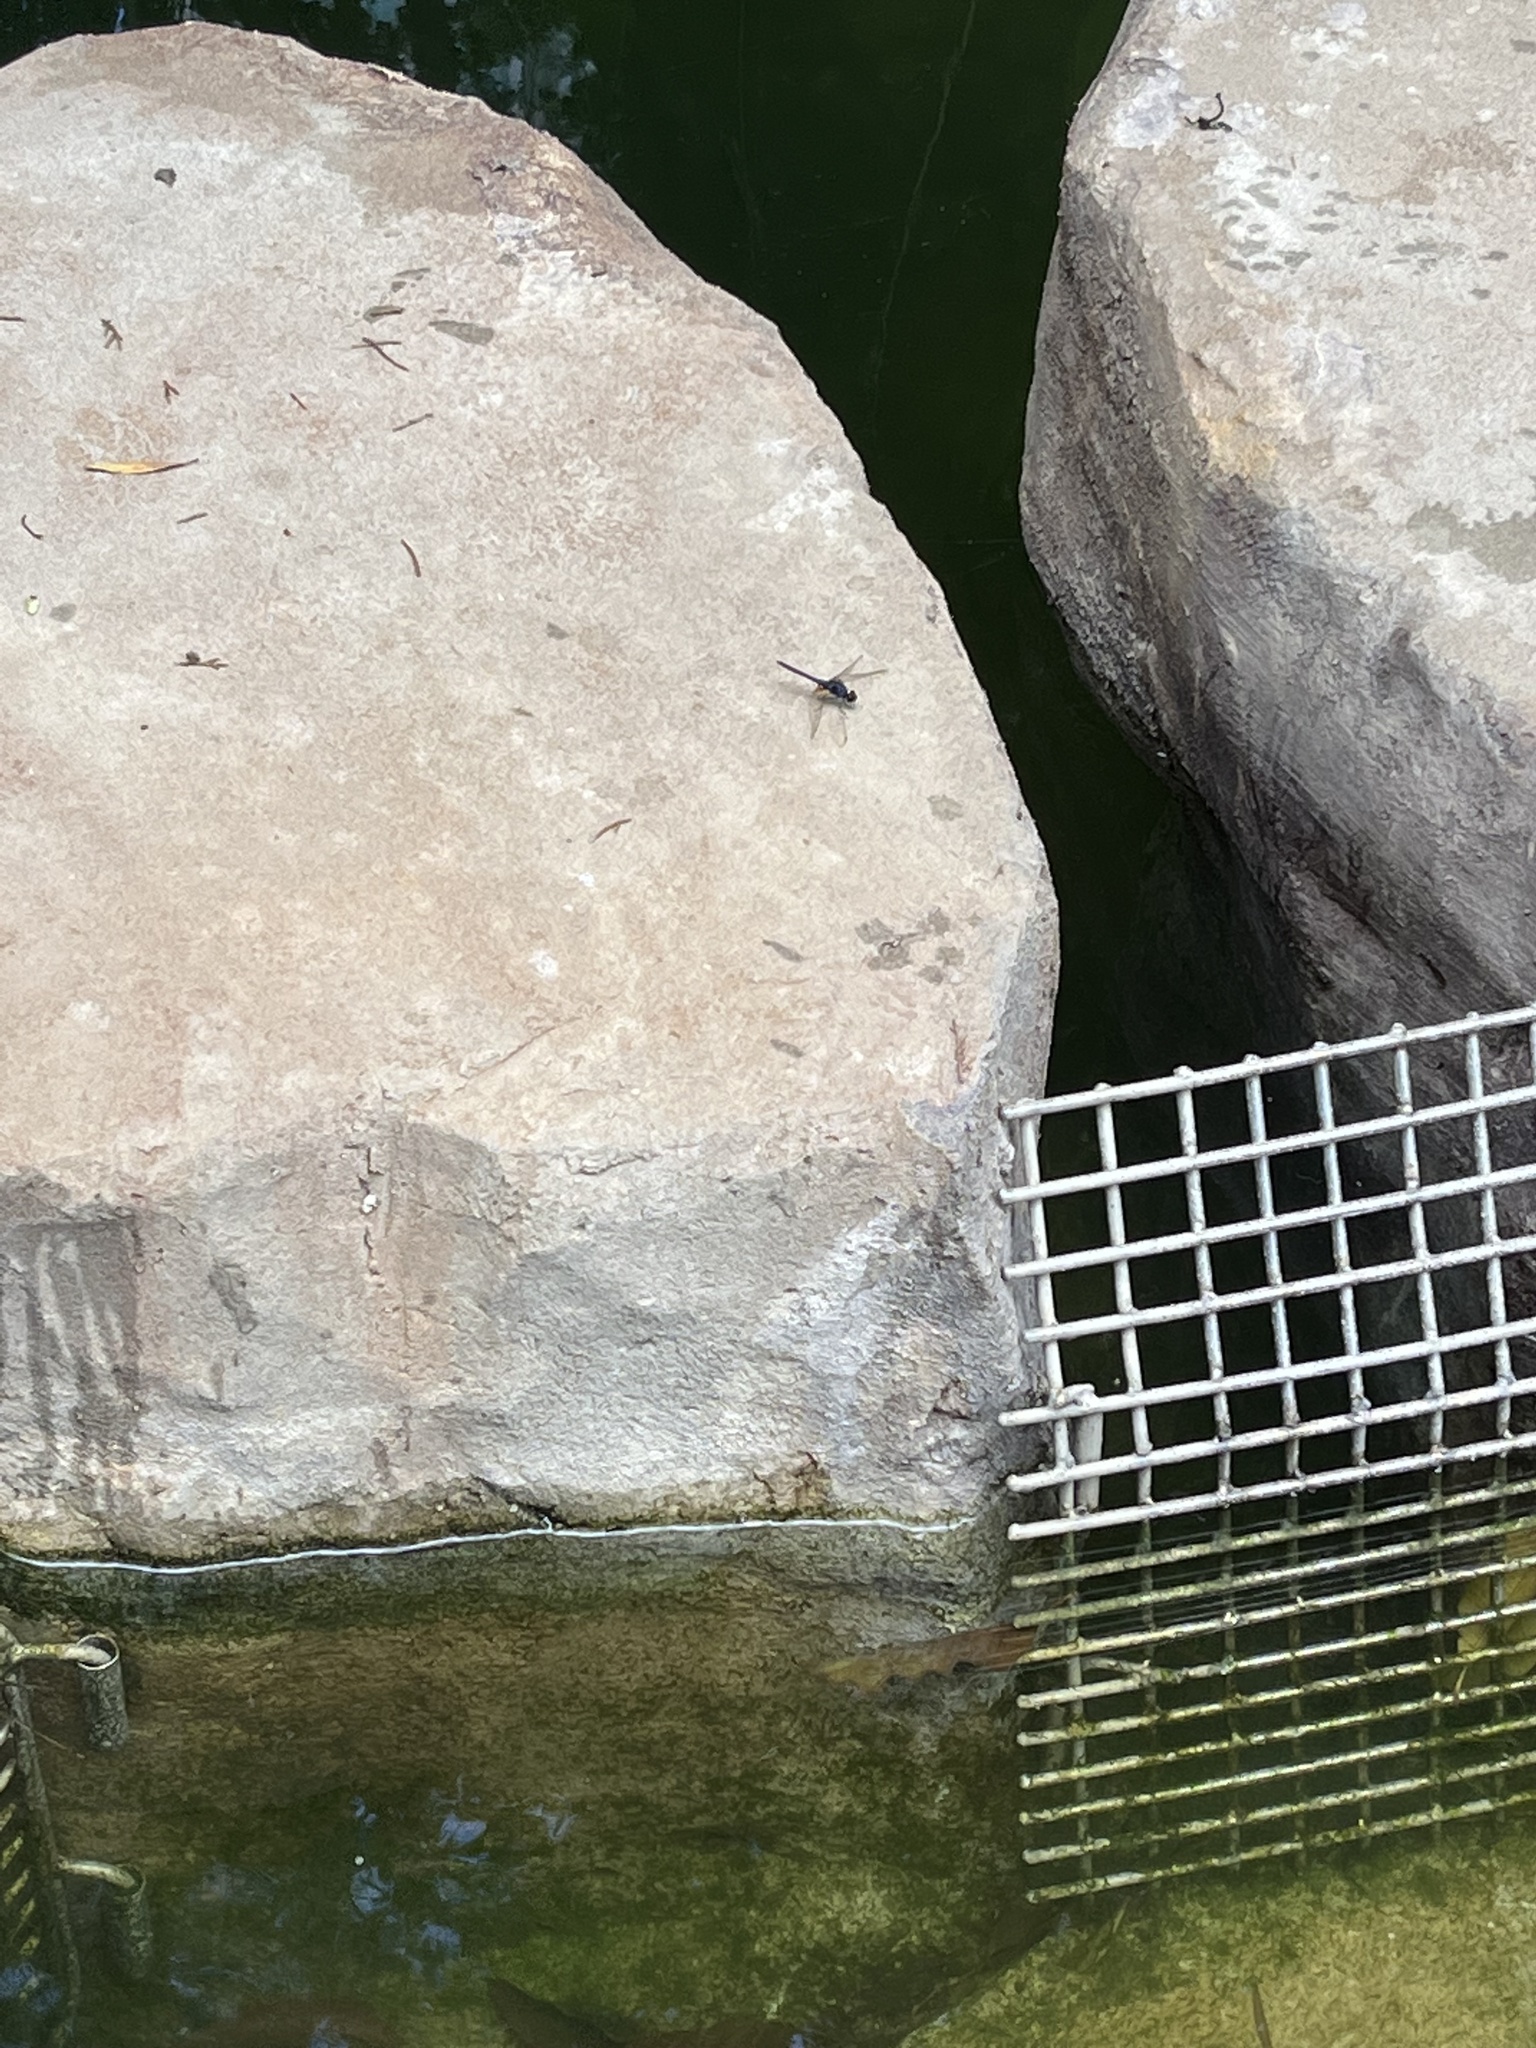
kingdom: Animalia
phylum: Arthropoda
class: Insecta
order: Odonata
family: Libellulidae
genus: Trithemis
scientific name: Trithemis festiva
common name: Indigo dropwing
